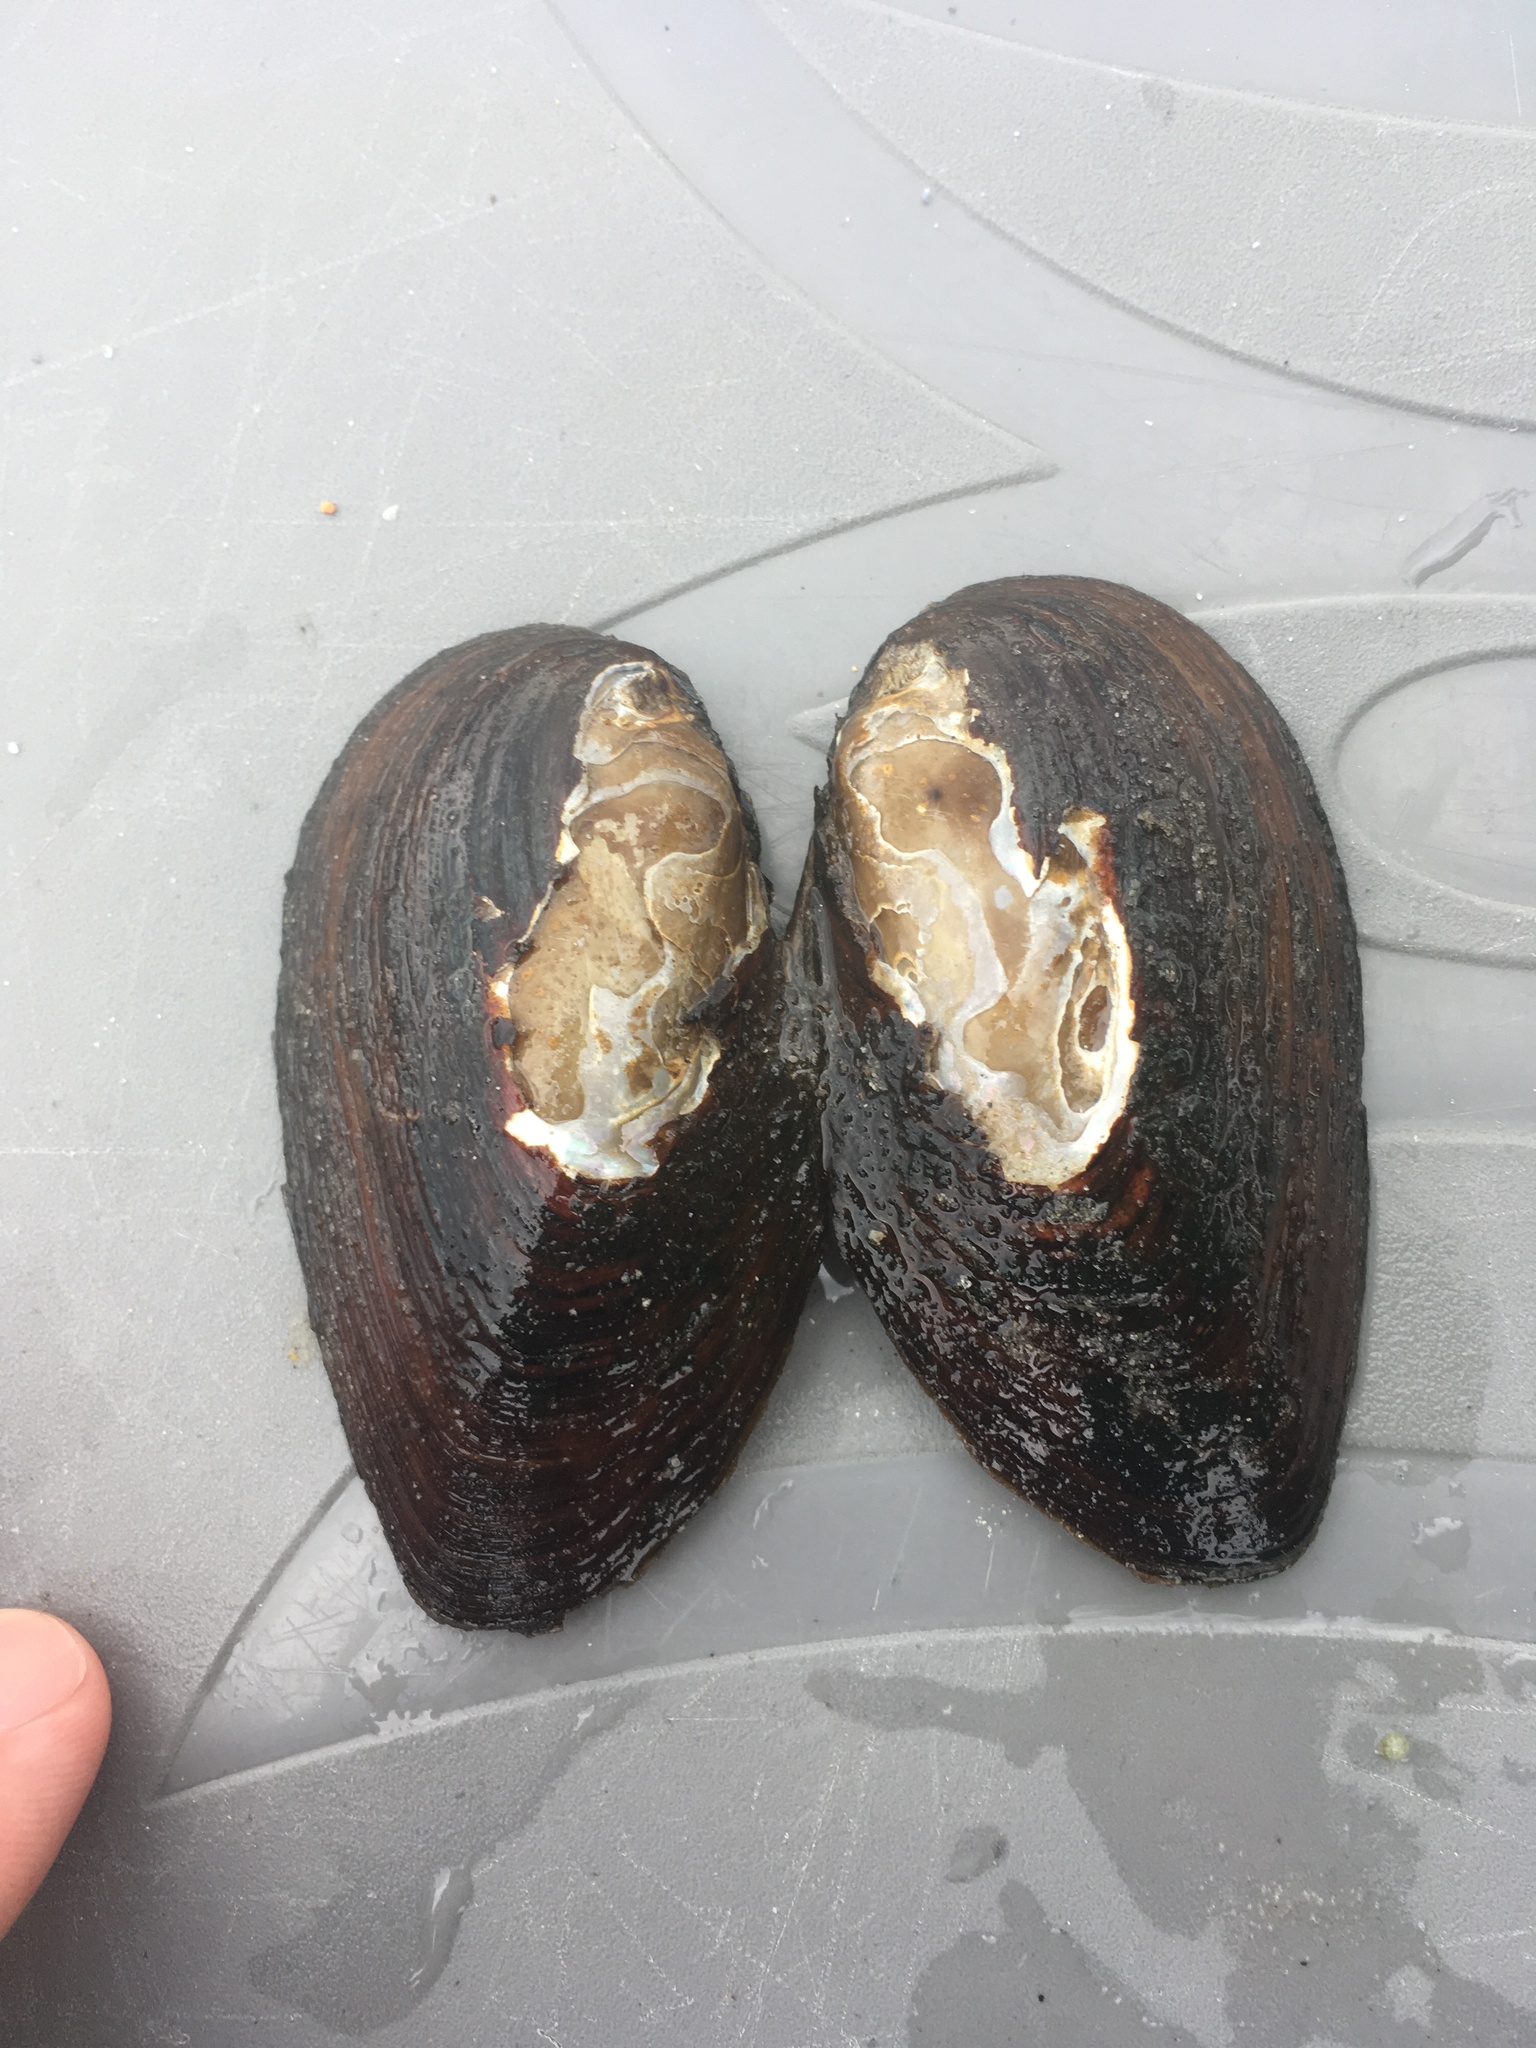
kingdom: Animalia
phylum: Mollusca
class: Bivalvia
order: Unionida
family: Unionidae
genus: Elliptio
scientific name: Elliptio complanata
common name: Eastern elliptio
